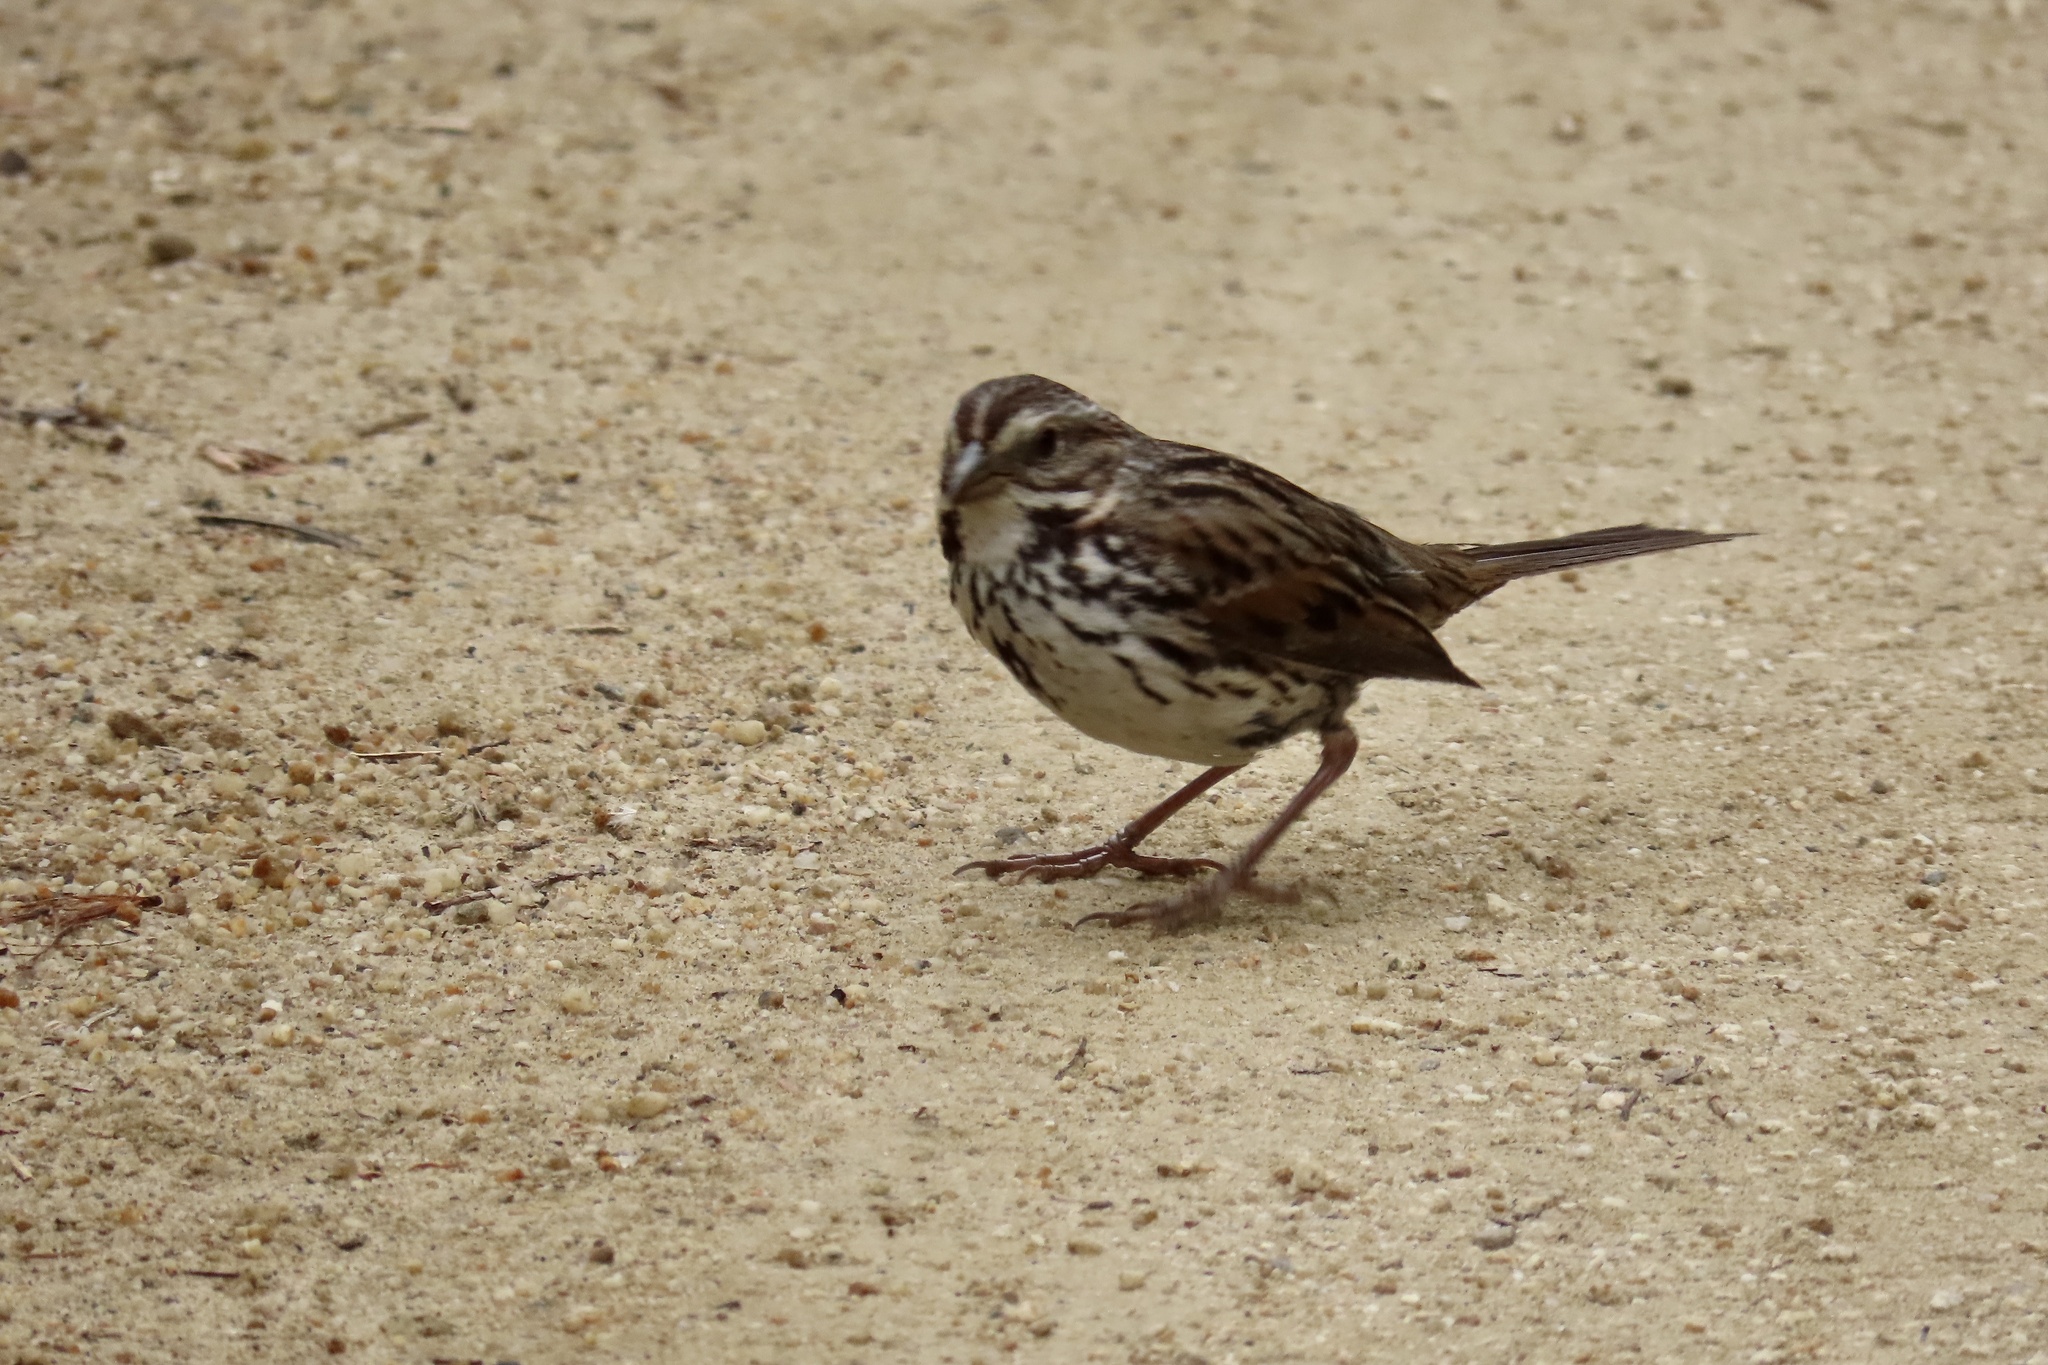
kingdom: Animalia
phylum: Chordata
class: Aves
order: Passeriformes
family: Passerellidae
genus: Melospiza
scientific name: Melospiza melodia
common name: Song sparrow
